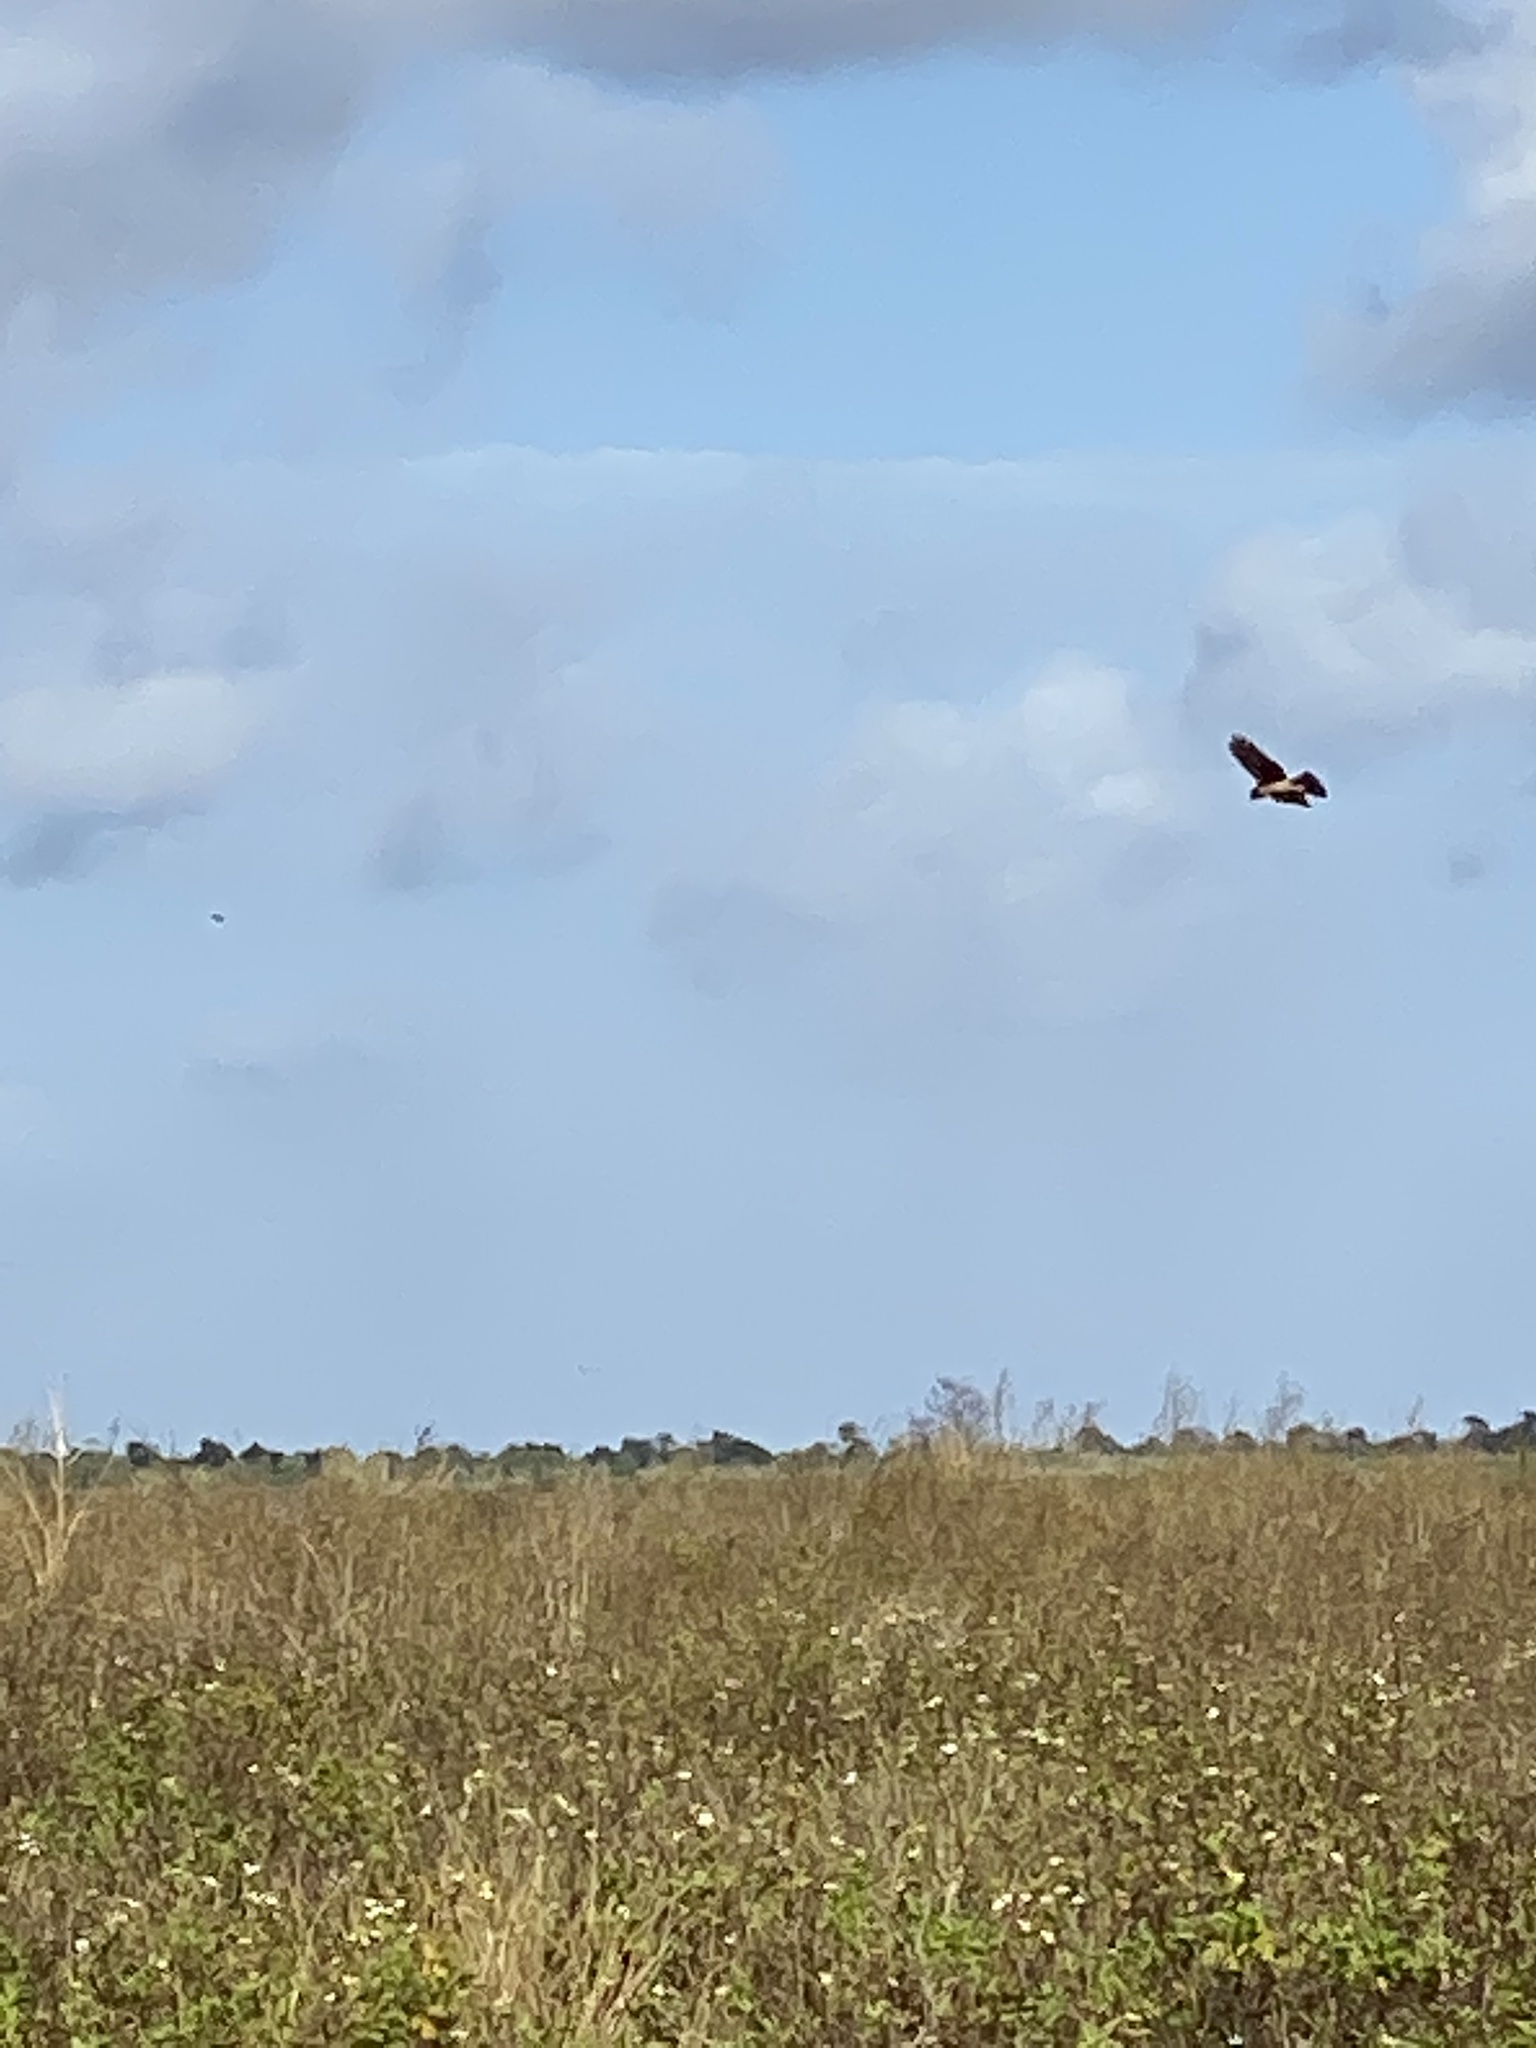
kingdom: Animalia
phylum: Chordata
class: Aves
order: Accipitriformes
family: Accipitridae
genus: Circus
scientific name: Circus cyaneus
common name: Hen harrier
